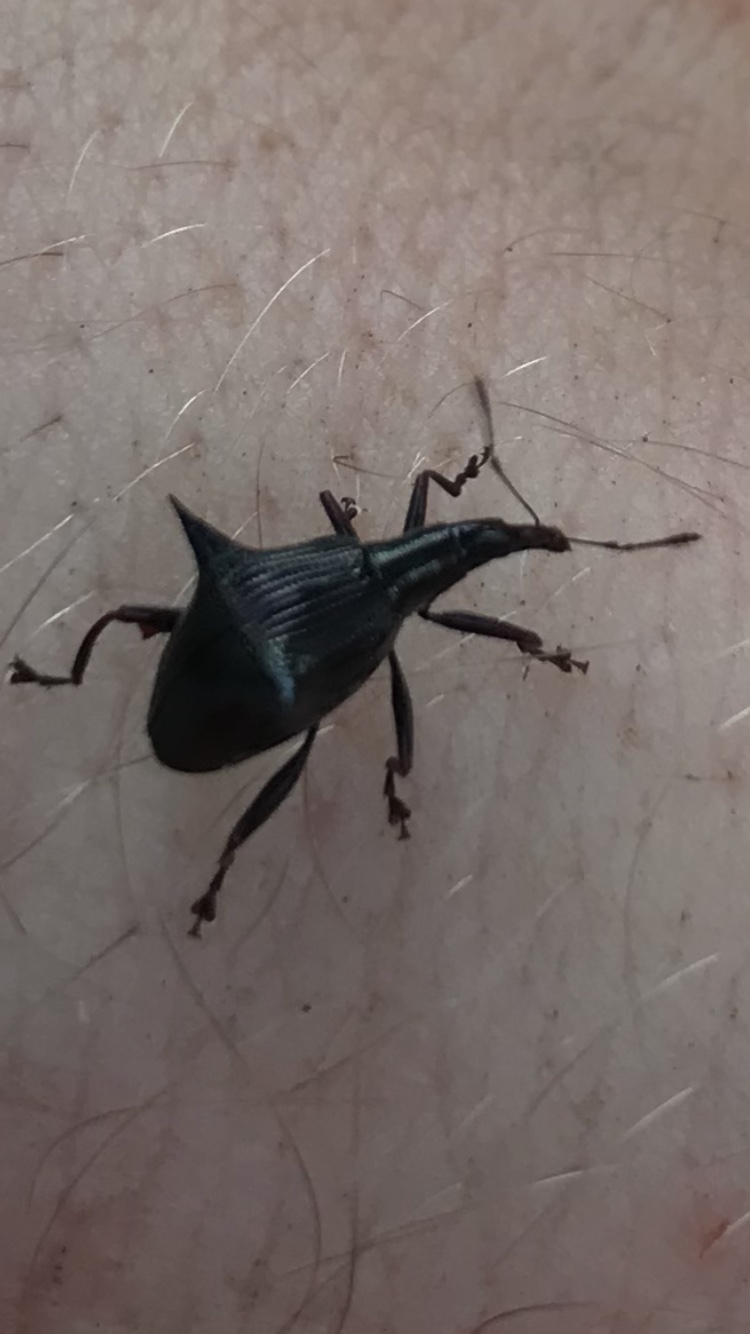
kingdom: Animalia
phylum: Arthropoda
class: Insecta
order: Coleoptera
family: Curculionidae
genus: Nyxetes
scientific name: Nyxetes bidens
